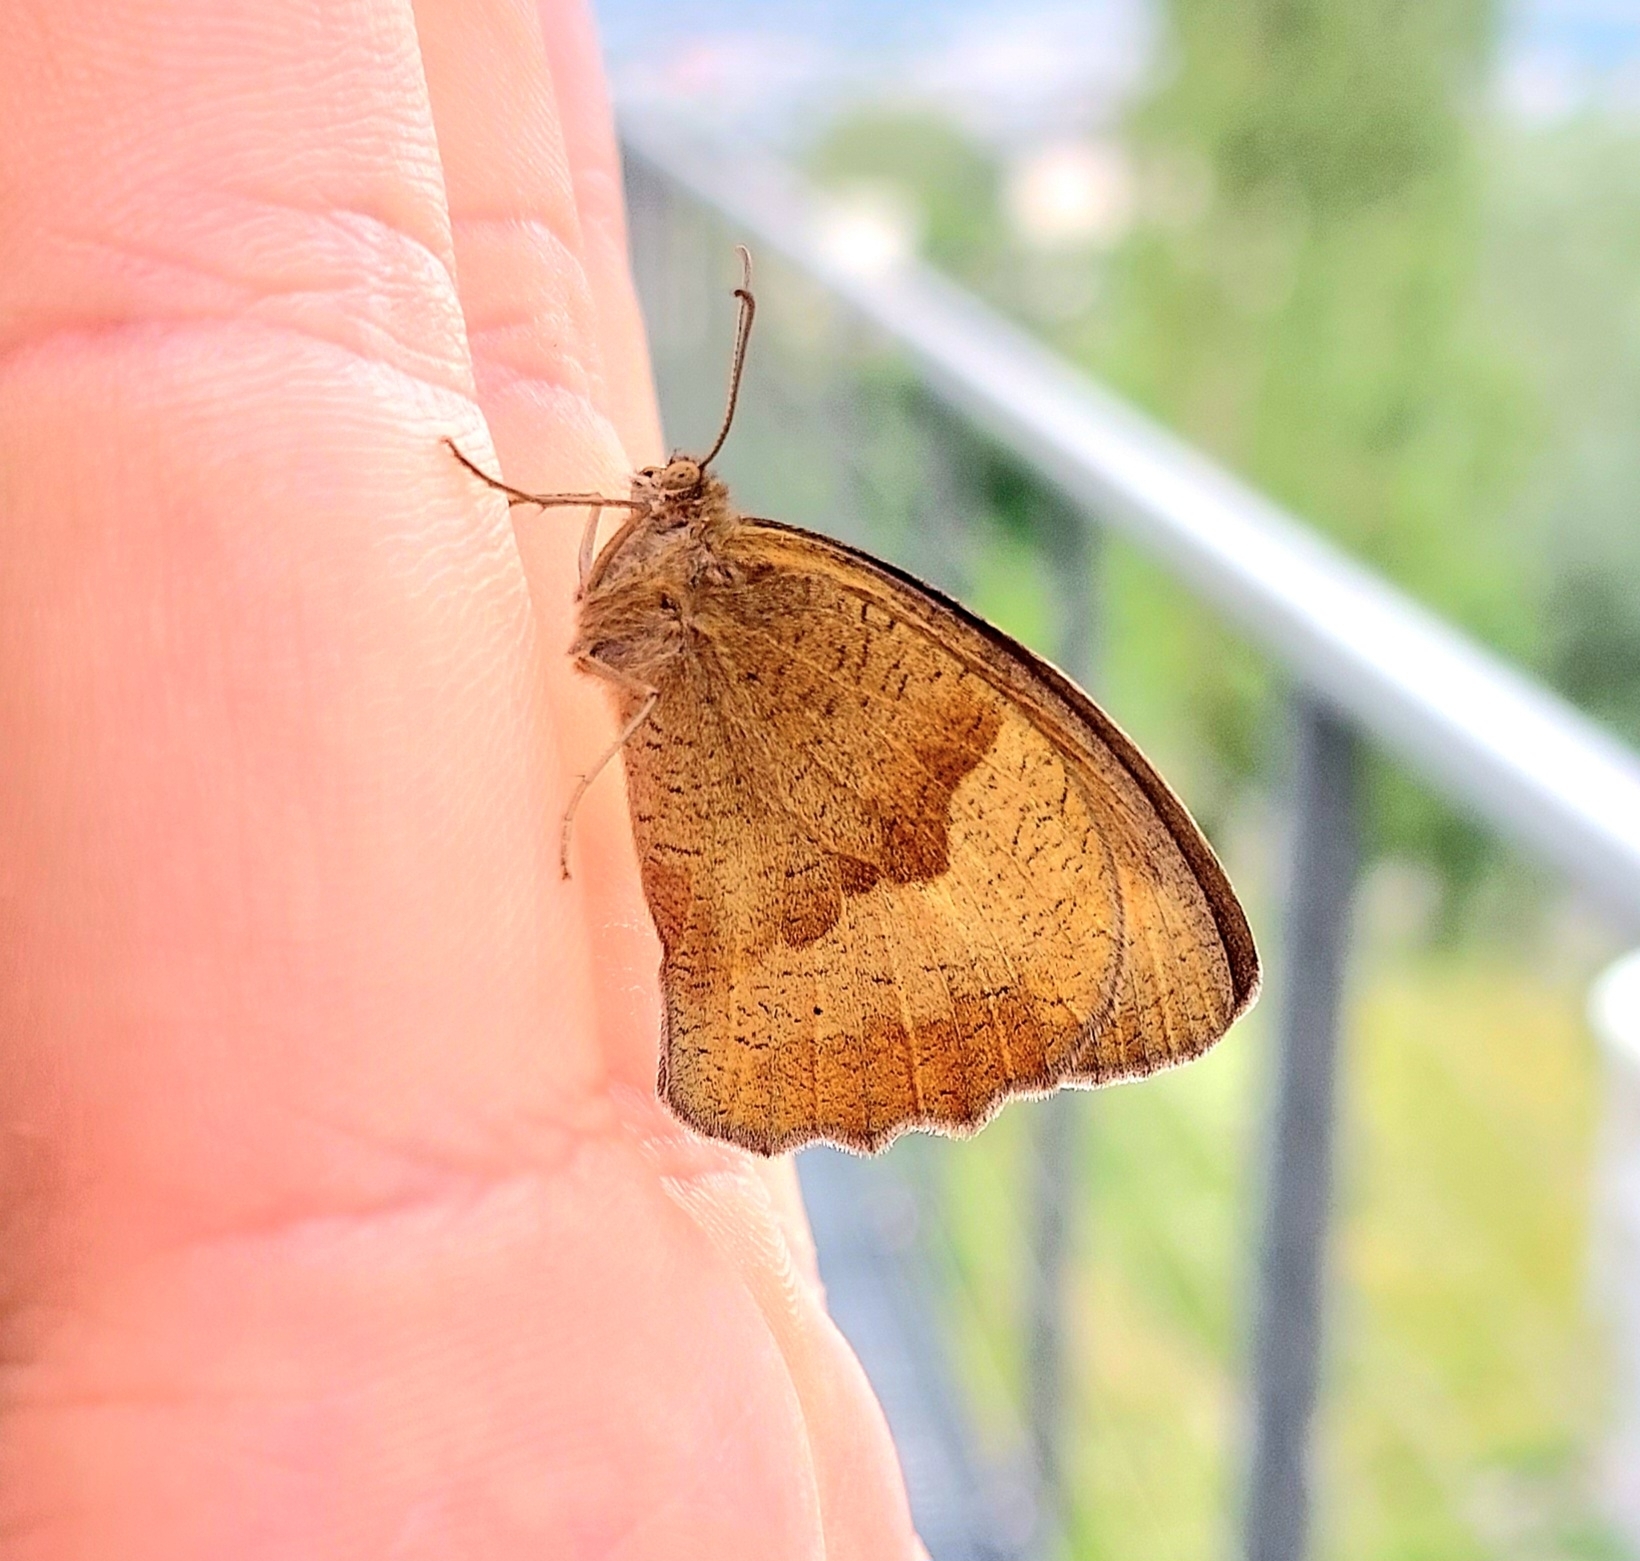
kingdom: Animalia
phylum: Arthropoda
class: Insecta
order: Lepidoptera
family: Nymphalidae
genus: Maniola
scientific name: Maniola jurtina
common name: Meadow brown
